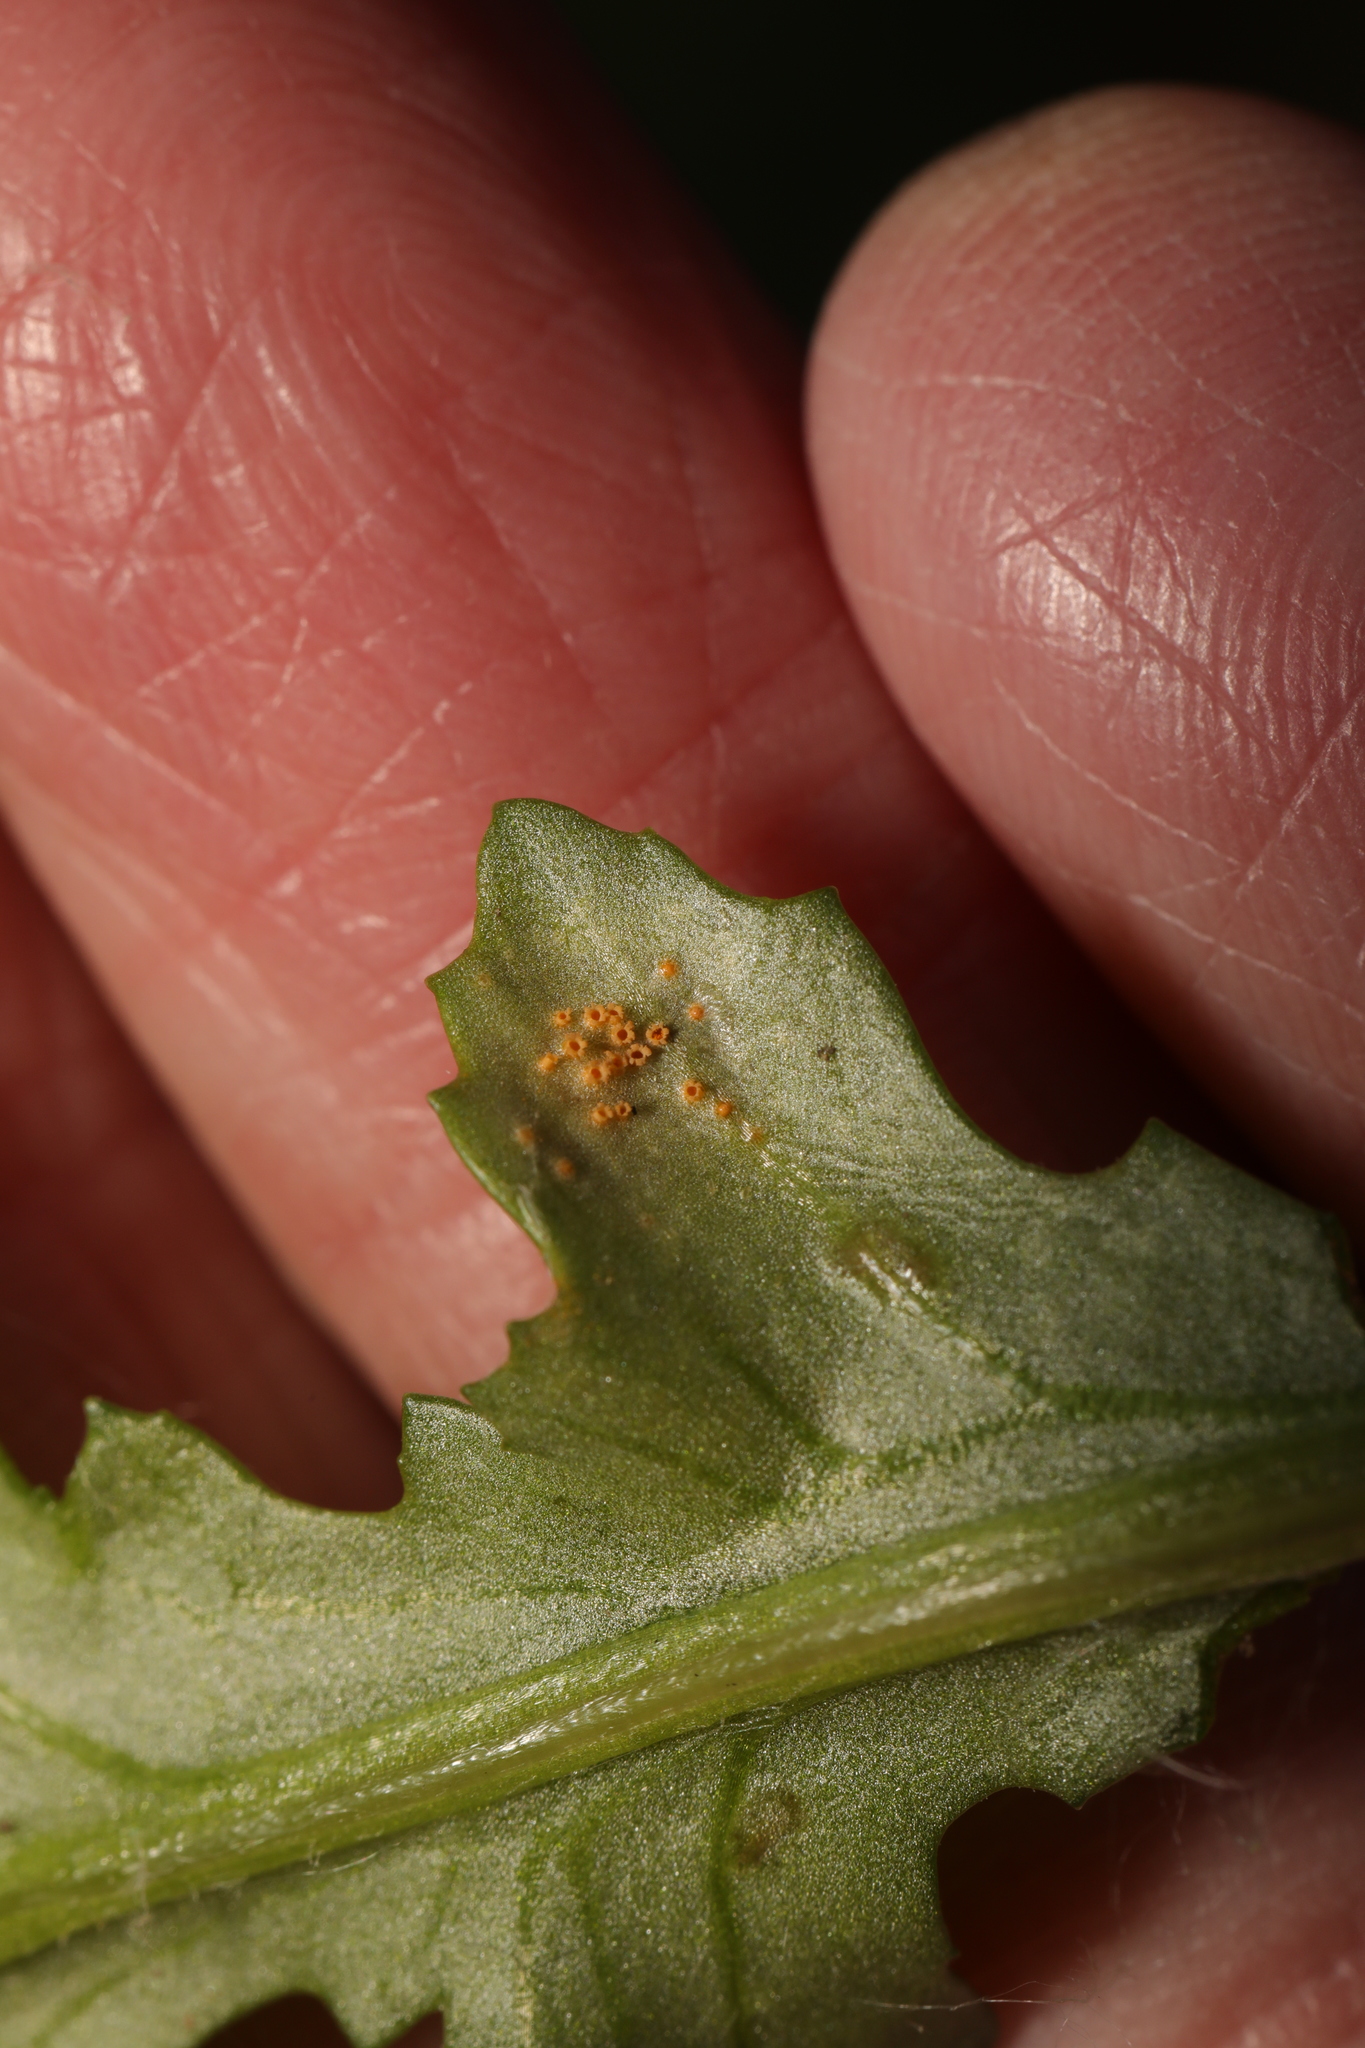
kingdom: Fungi
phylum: Basidiomycota
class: Pucciniomycetes
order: Pucciniales
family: Pucciniaceae
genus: Puccinia
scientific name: Puccinia lagenophorae
